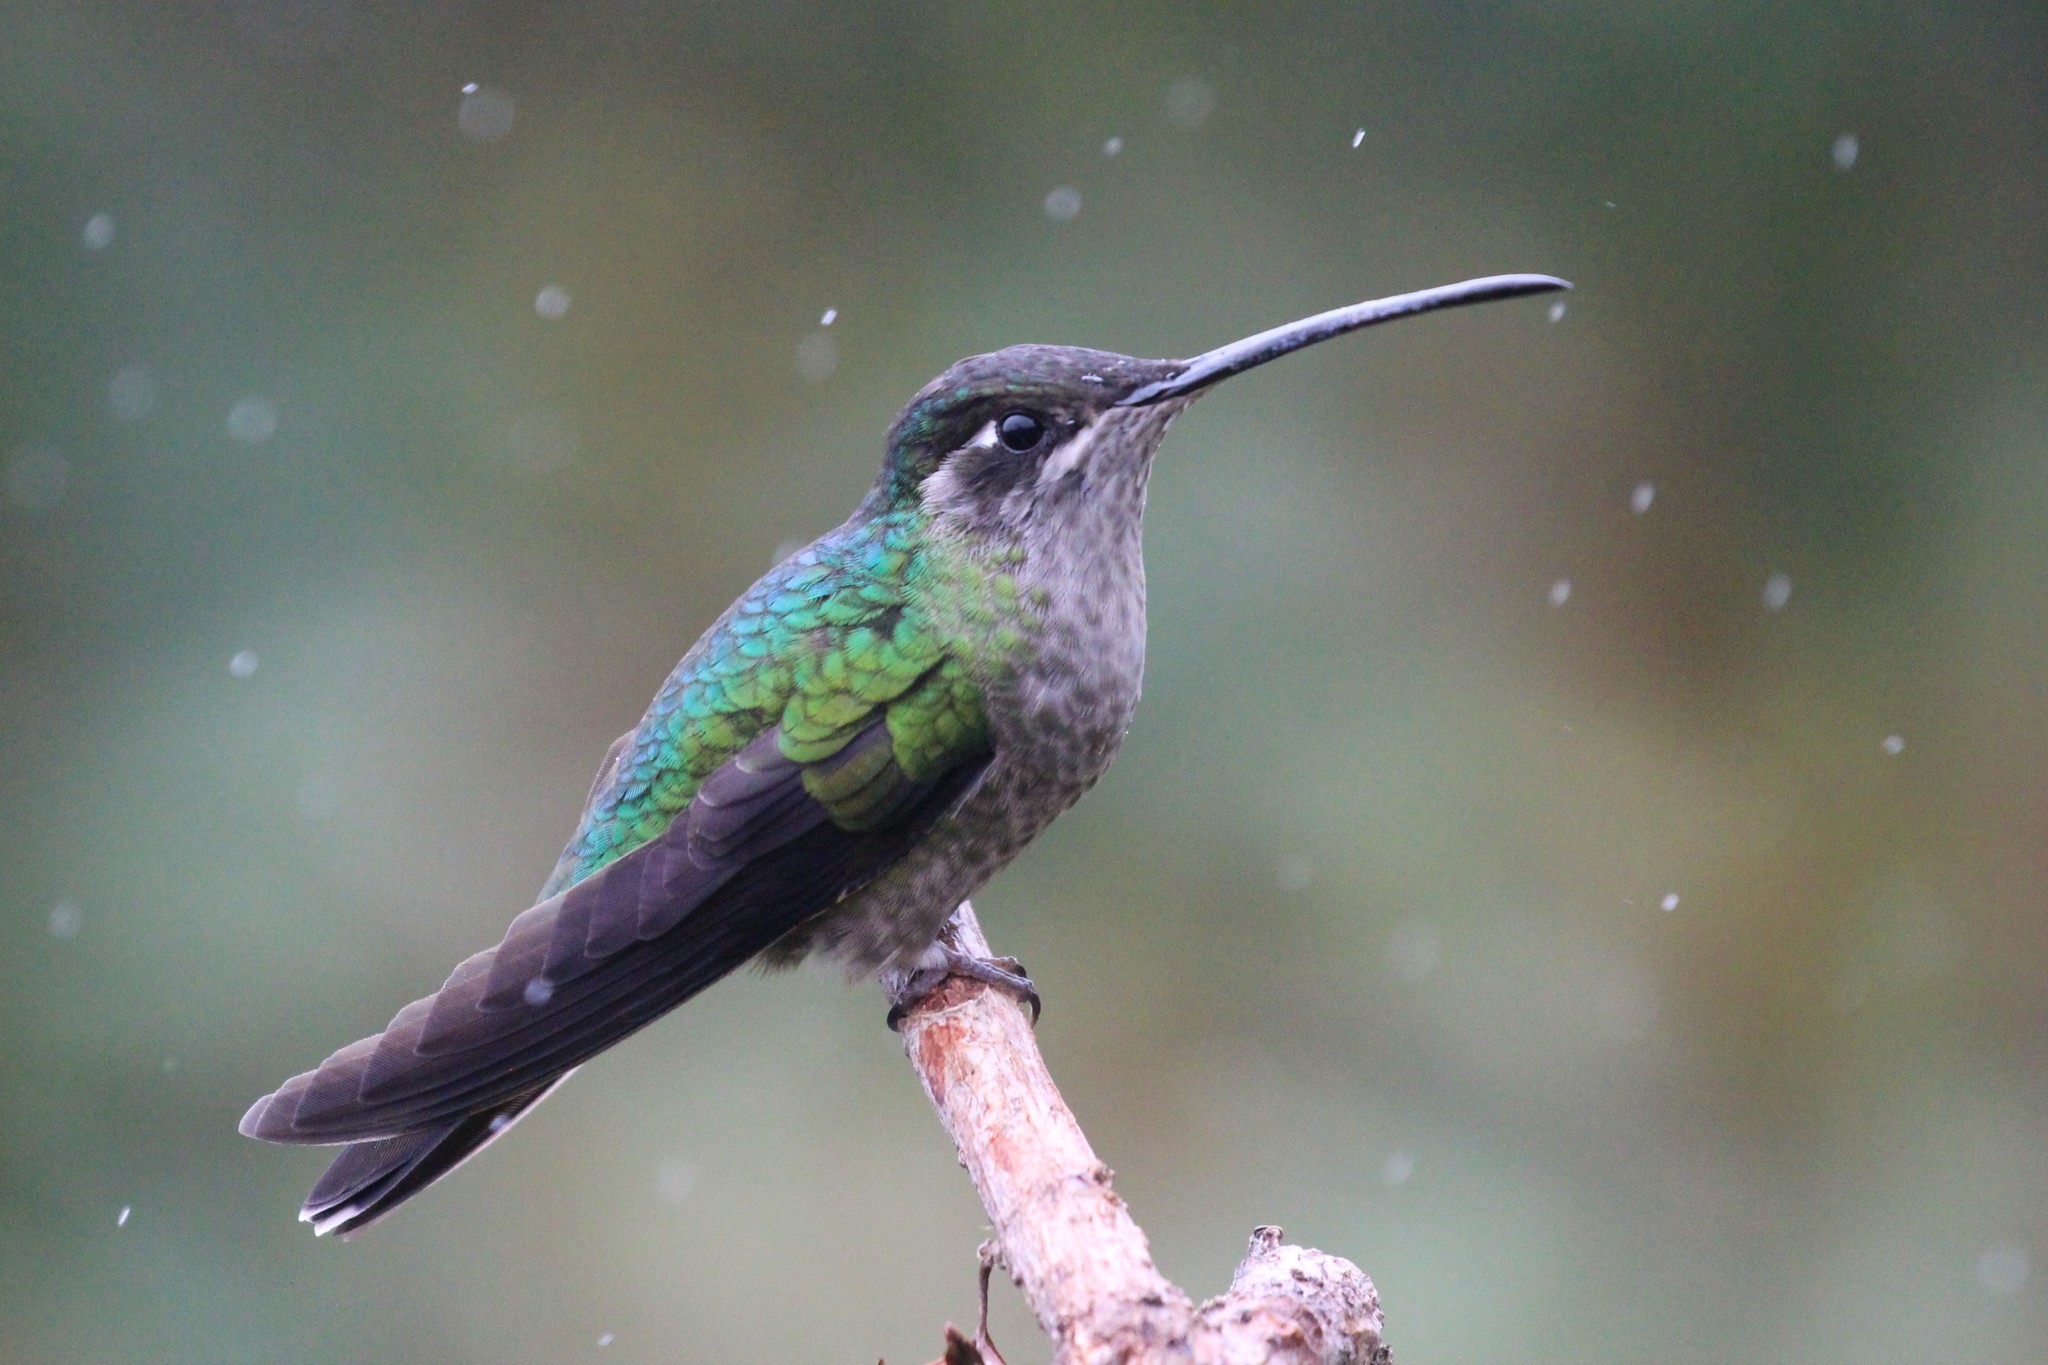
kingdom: Animalia
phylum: Chordata
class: Aves
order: Apodiformes
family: Trochilidae
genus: Eugenes
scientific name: Eugenes spectabilis
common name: Talamanca hummingbird
